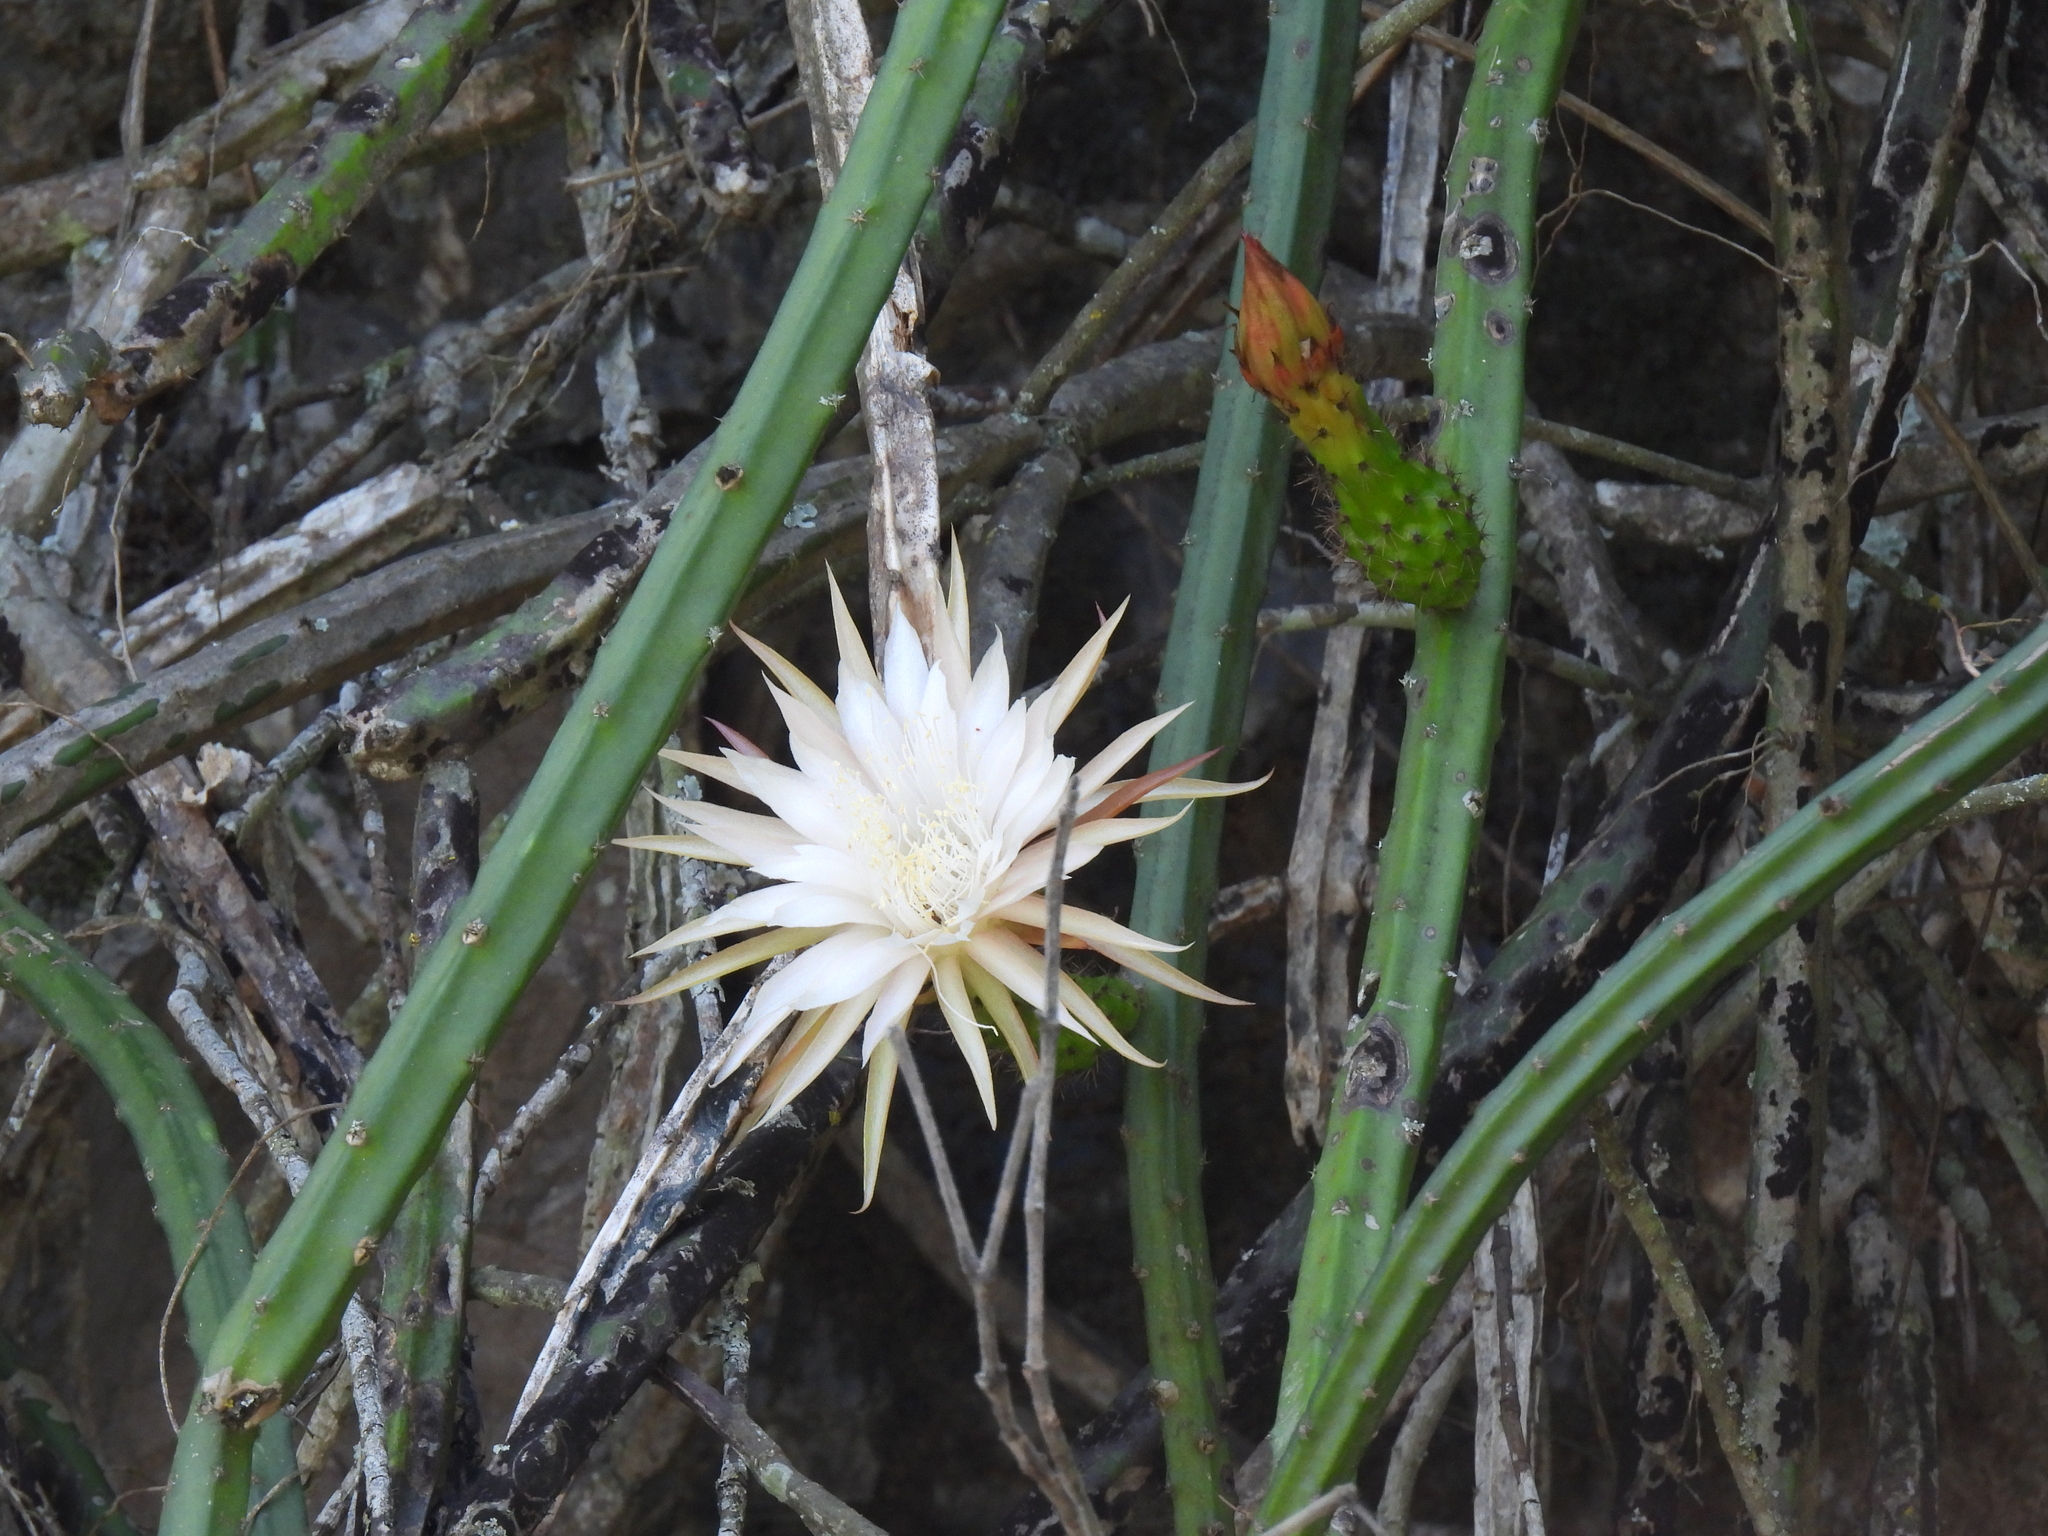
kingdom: Plantae
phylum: Tracheophyta
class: Magnoliopsida
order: Caryophyllales
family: Cactaceae
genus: Selenicereus
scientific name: Selenicereus spinulosus
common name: Nightblooming cereus
